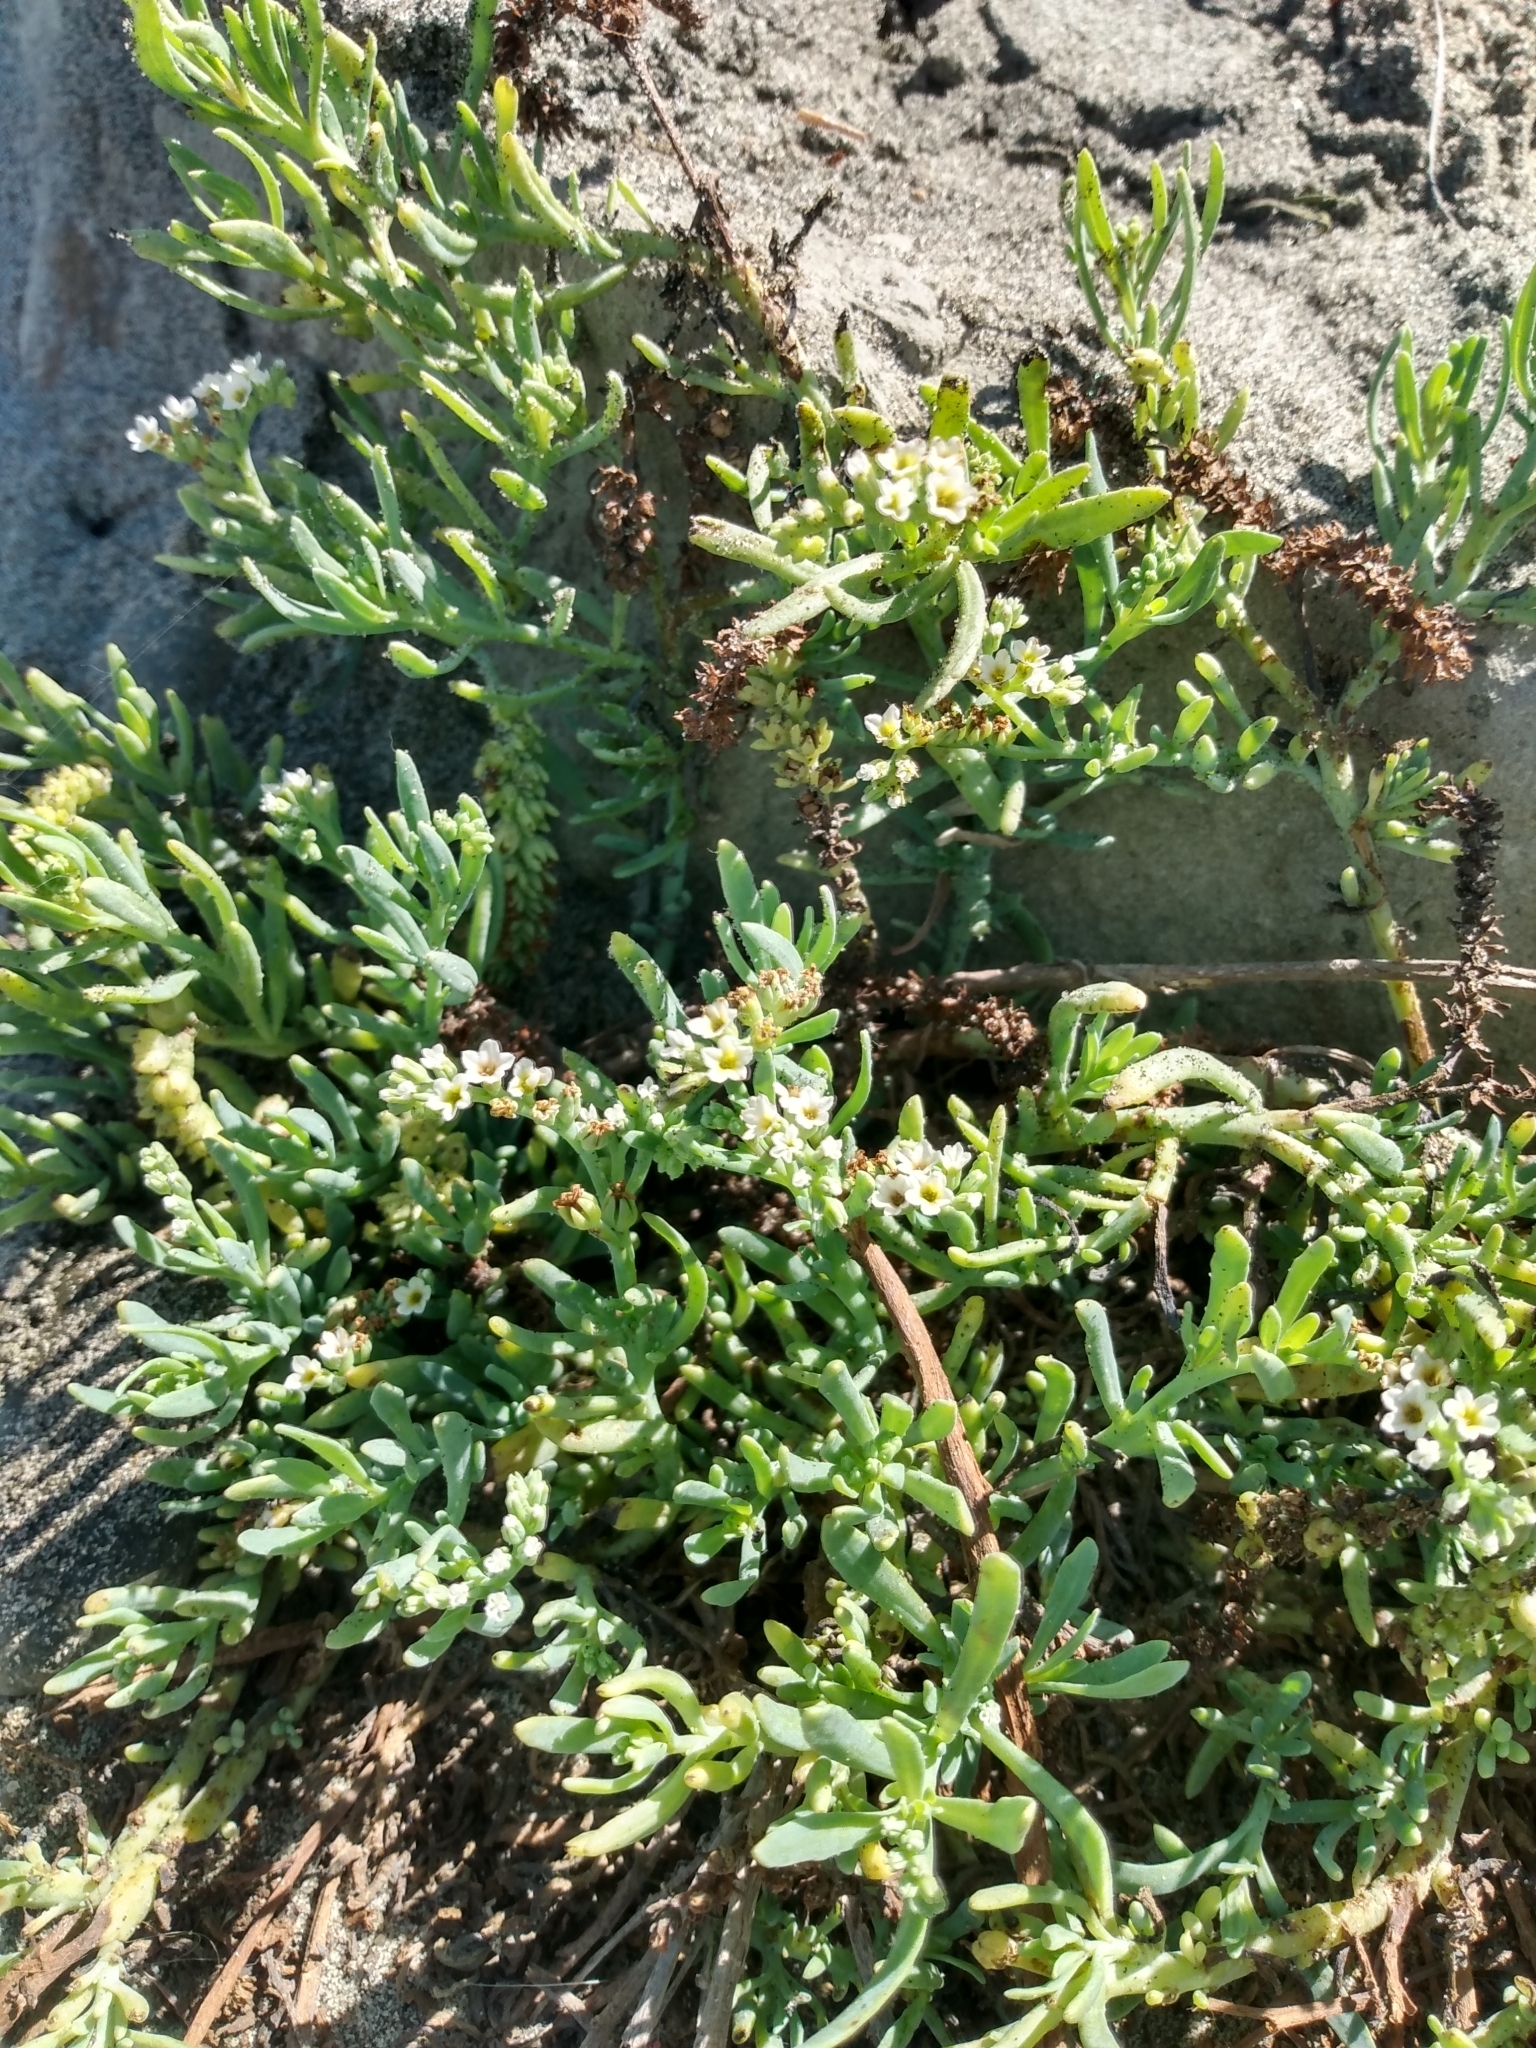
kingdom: Plantae
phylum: Tracheophyta
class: Magnoliopsida
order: Boraginales
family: Heliotropiaceae
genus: Heliotropium
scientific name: Heliotropium curassavicum
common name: Seaside heliotrope
